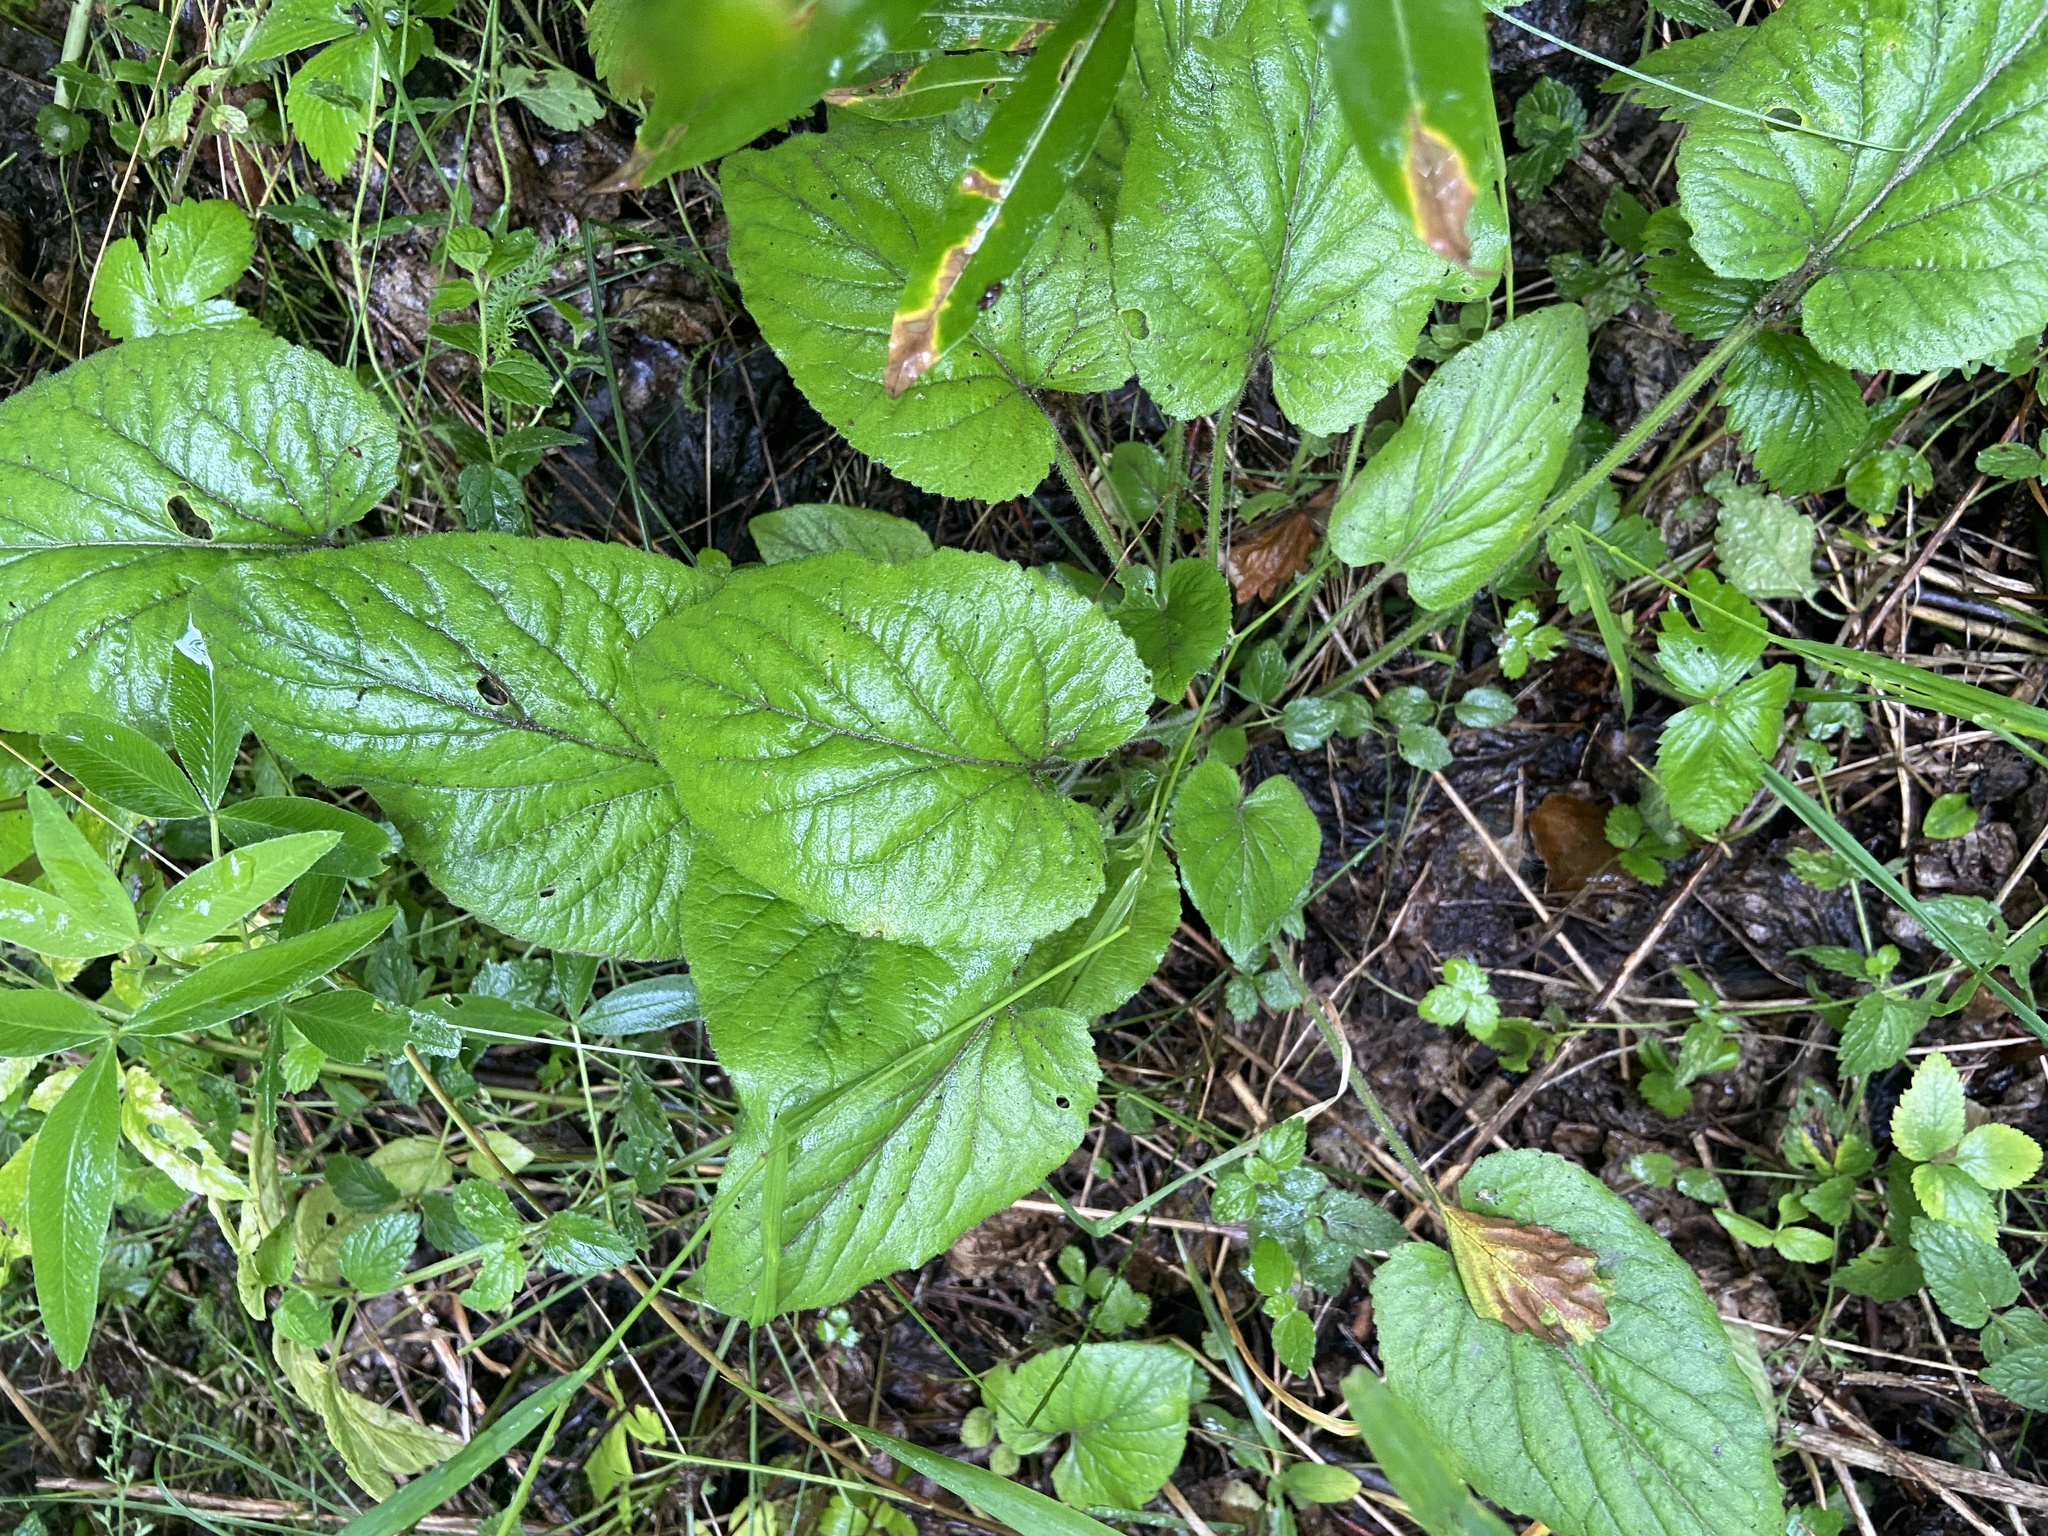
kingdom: Plantae
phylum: Tracheophyta
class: Magnoliopsida
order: Malpighiales
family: Violaceae
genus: Viola
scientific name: Viola hirta
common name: Hairy violet
